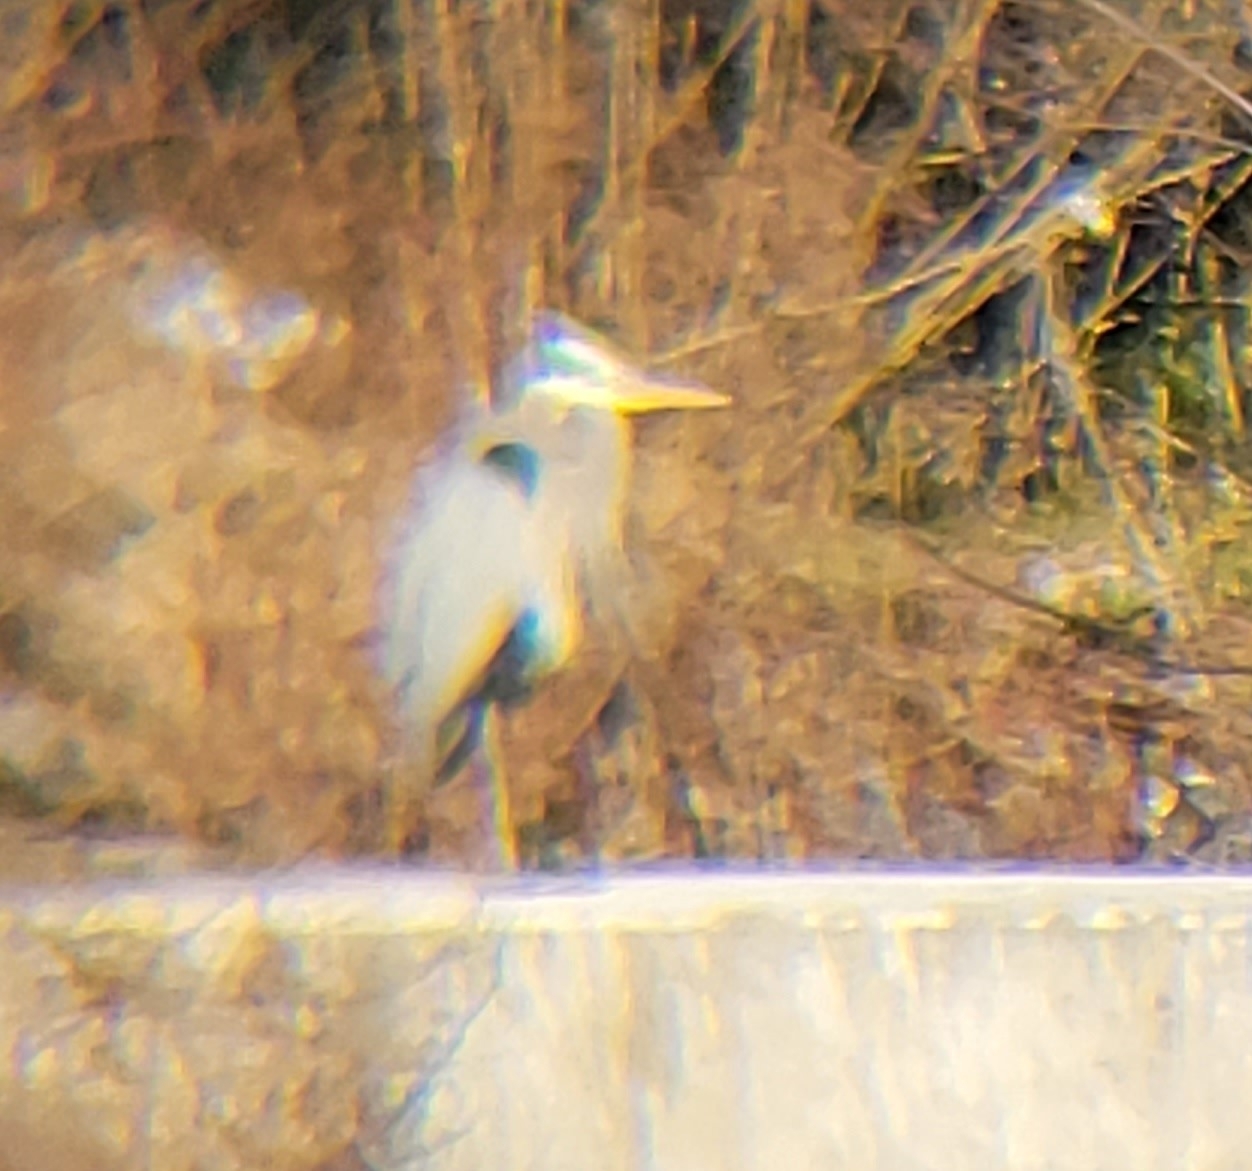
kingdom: Animalia
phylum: Chordata
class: Aves
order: Pelecaniformes
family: Ardeidae
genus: Ardea
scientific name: Ardea herodias
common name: Great blue heron
